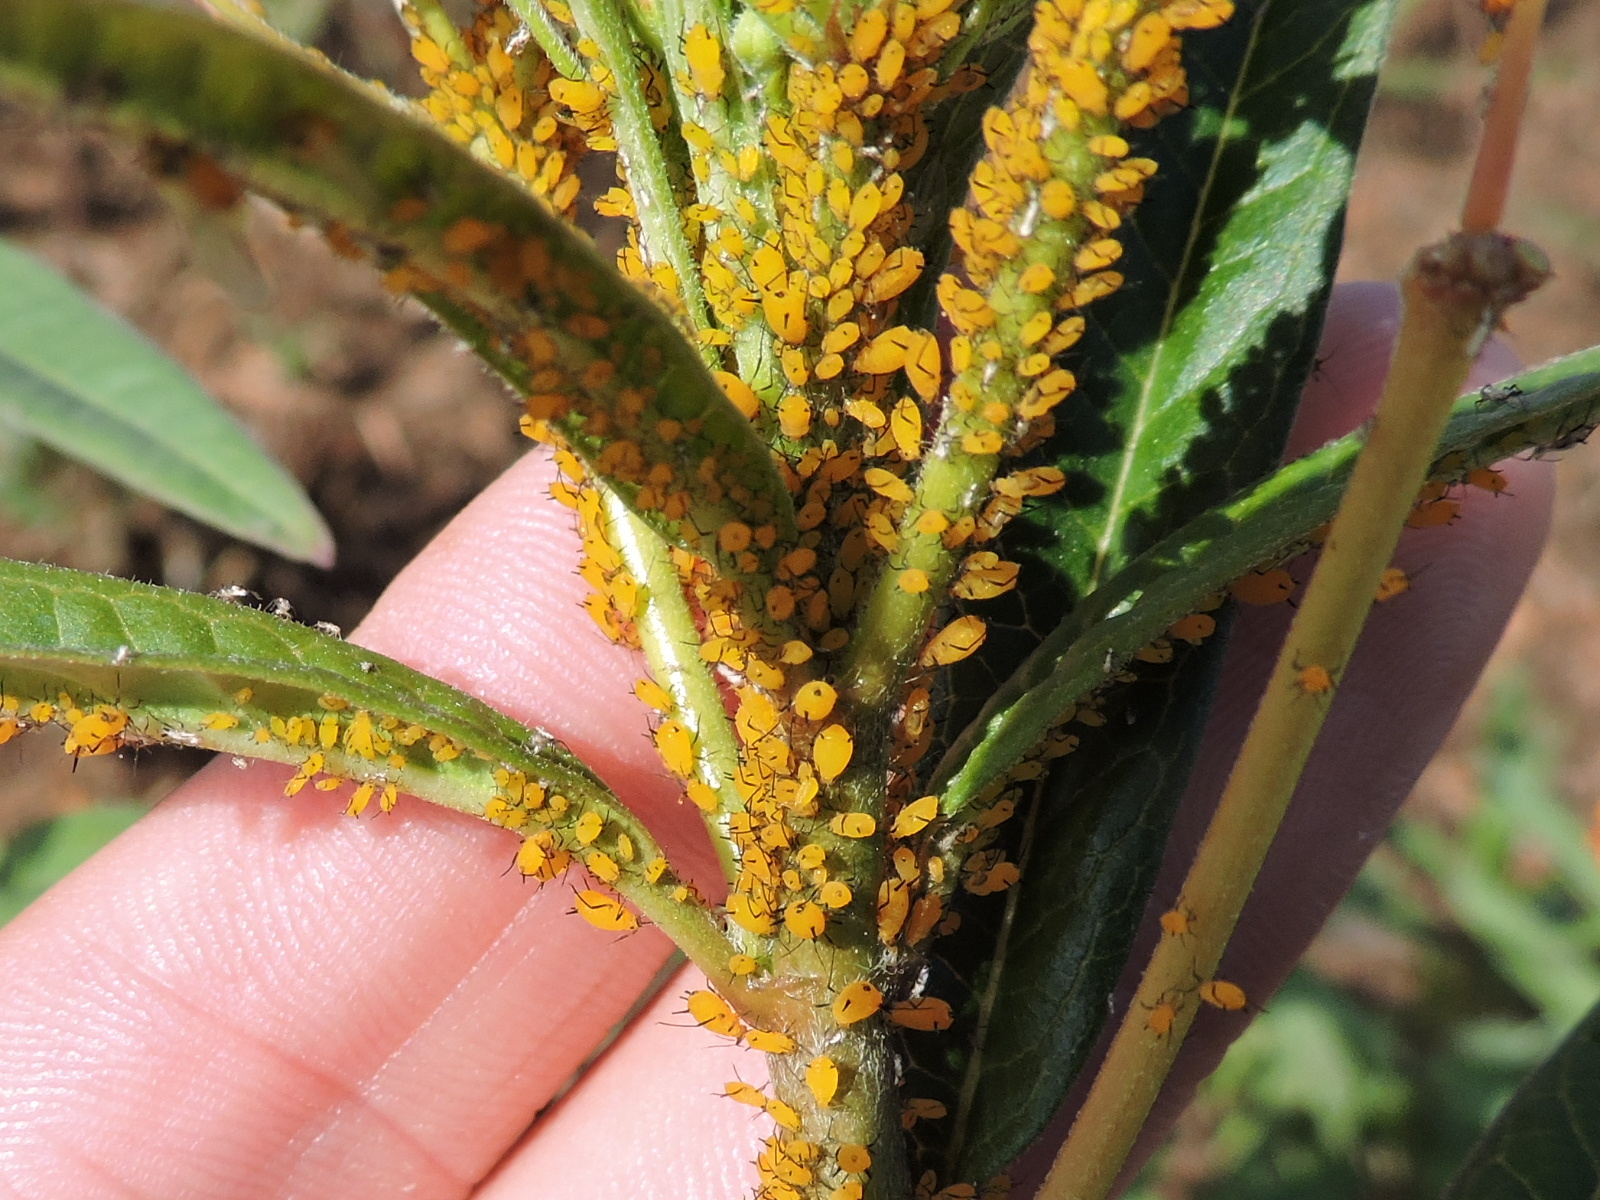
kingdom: Animalia
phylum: Arthropoda
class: Insecta
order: Hemiptera
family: Aphididae
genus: Aphis
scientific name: Aphis nerii
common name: Oleander aphid
